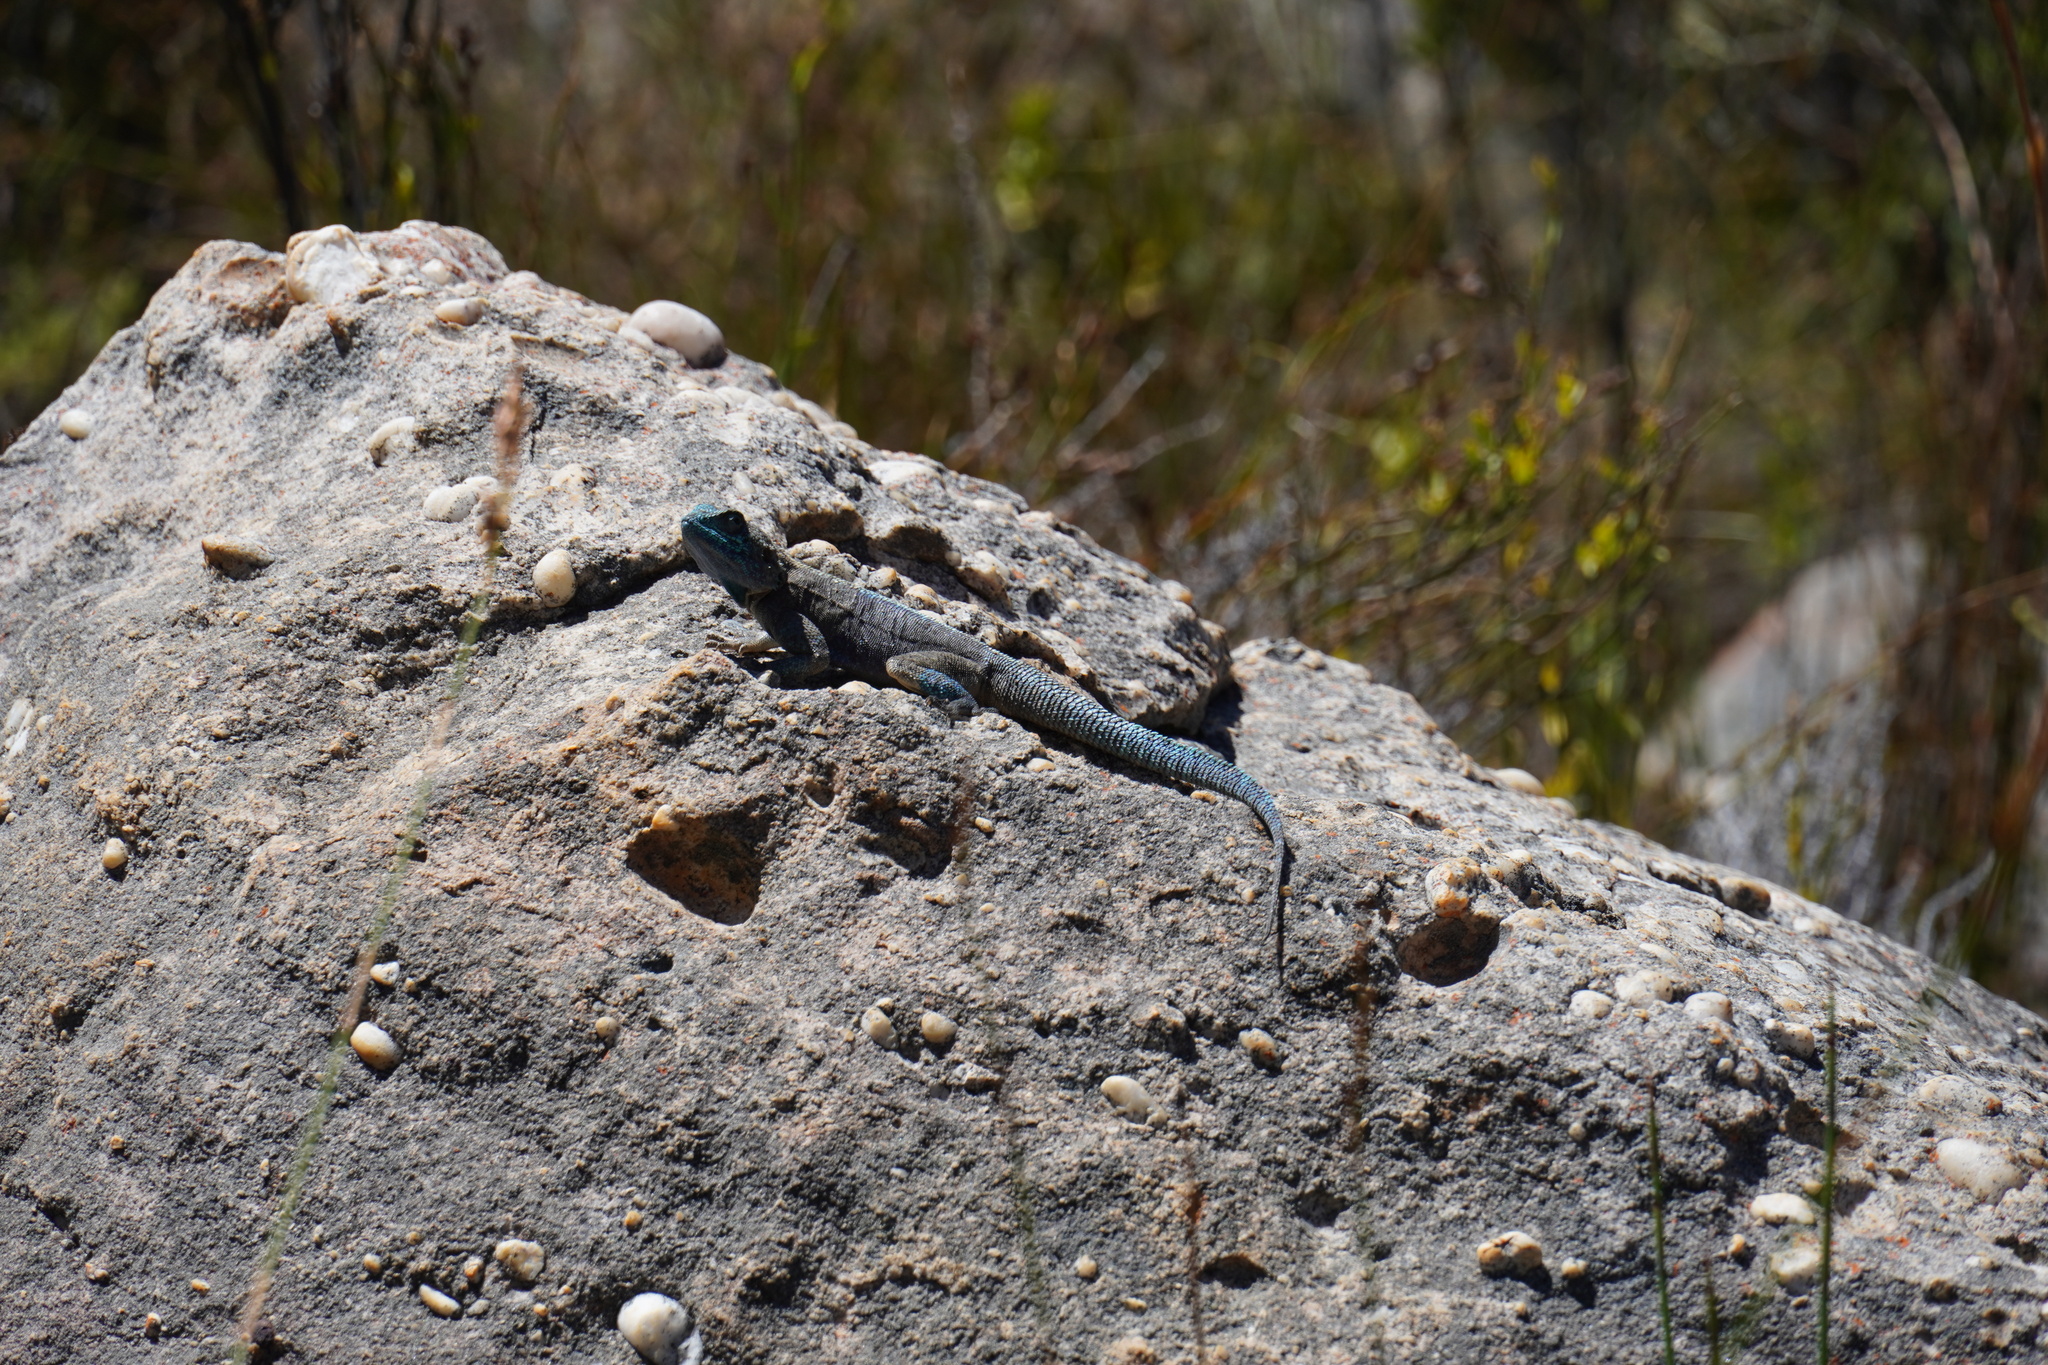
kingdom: Animalia
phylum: Chordata
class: Squamata
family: Agamidae
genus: Agama
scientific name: Agama atra
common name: Southern african rock agama
